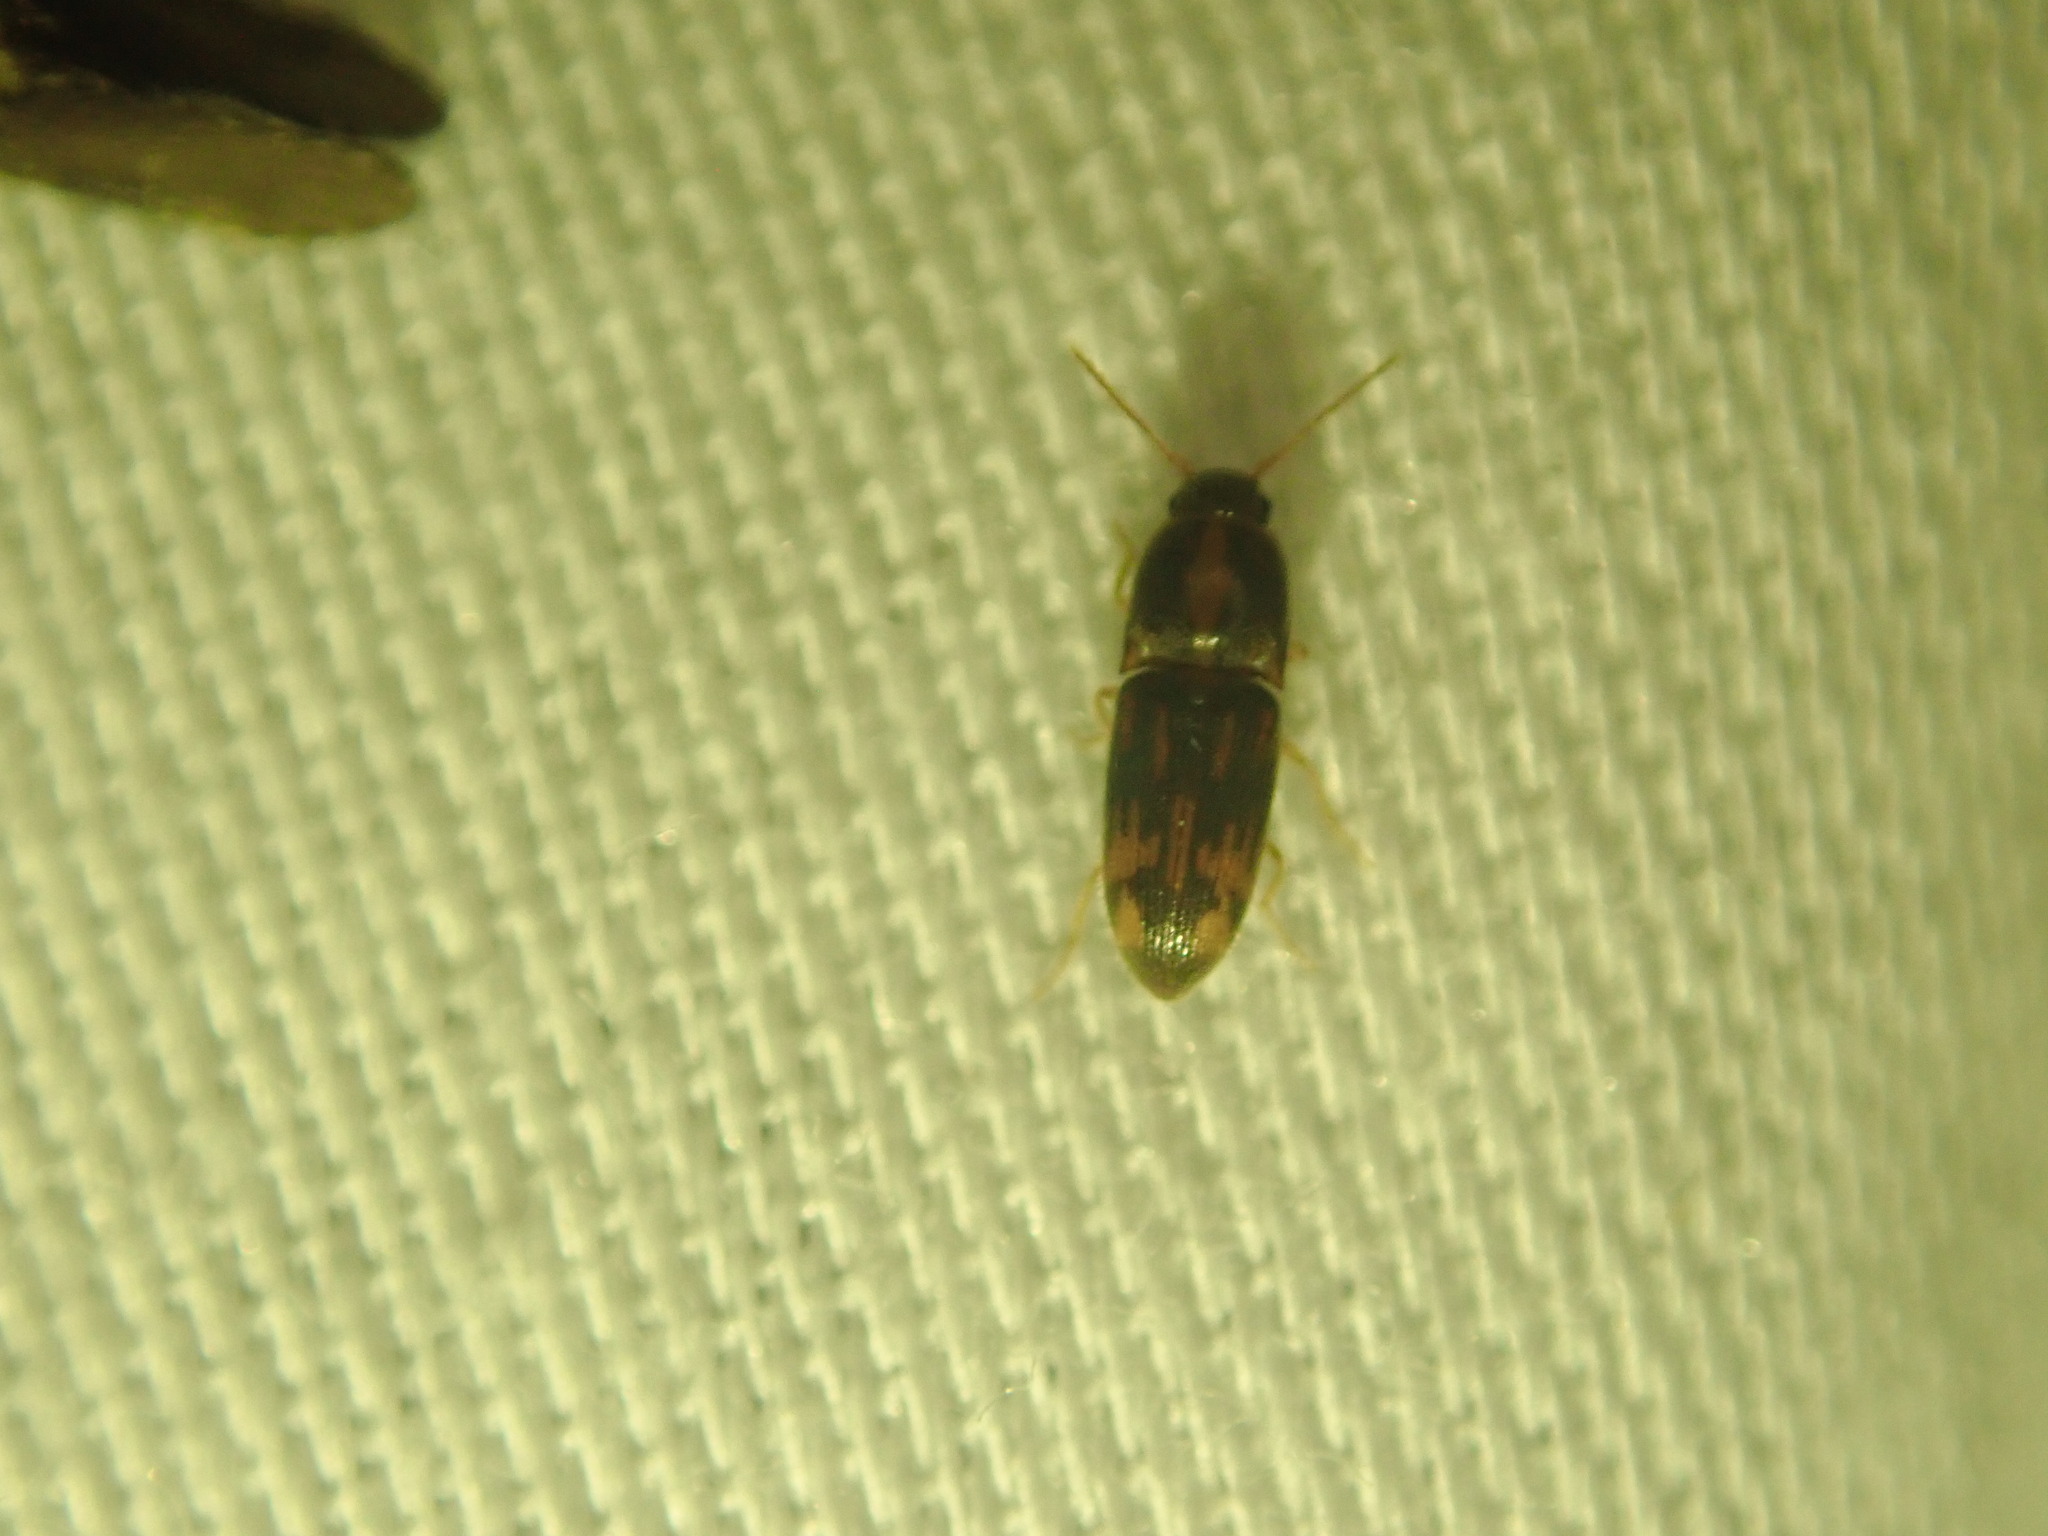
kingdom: Animalia
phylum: Arthropoda
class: Insecta
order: Coleoptera
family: Elateridae
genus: Monocrepidius
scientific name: Monocrepidius bellus
